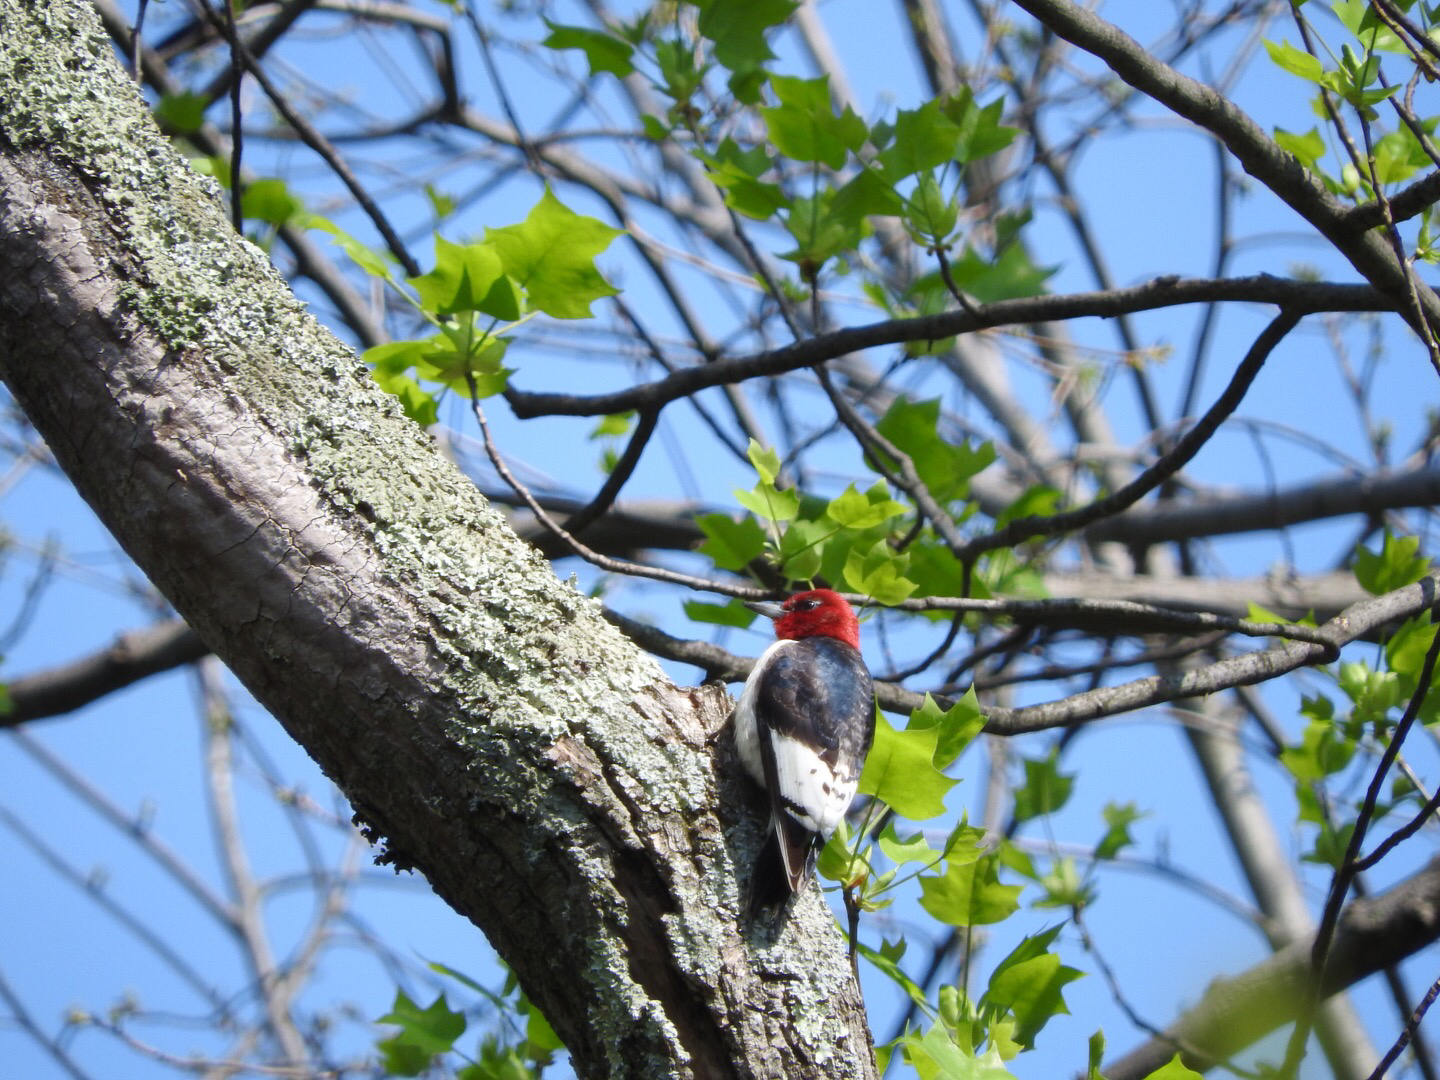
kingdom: Animalia
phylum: Chordata
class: Aves
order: Piciformes
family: Picidae
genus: Melanerpes
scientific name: Melanerpes erythrocephalus
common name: Red-headed woodpecker
